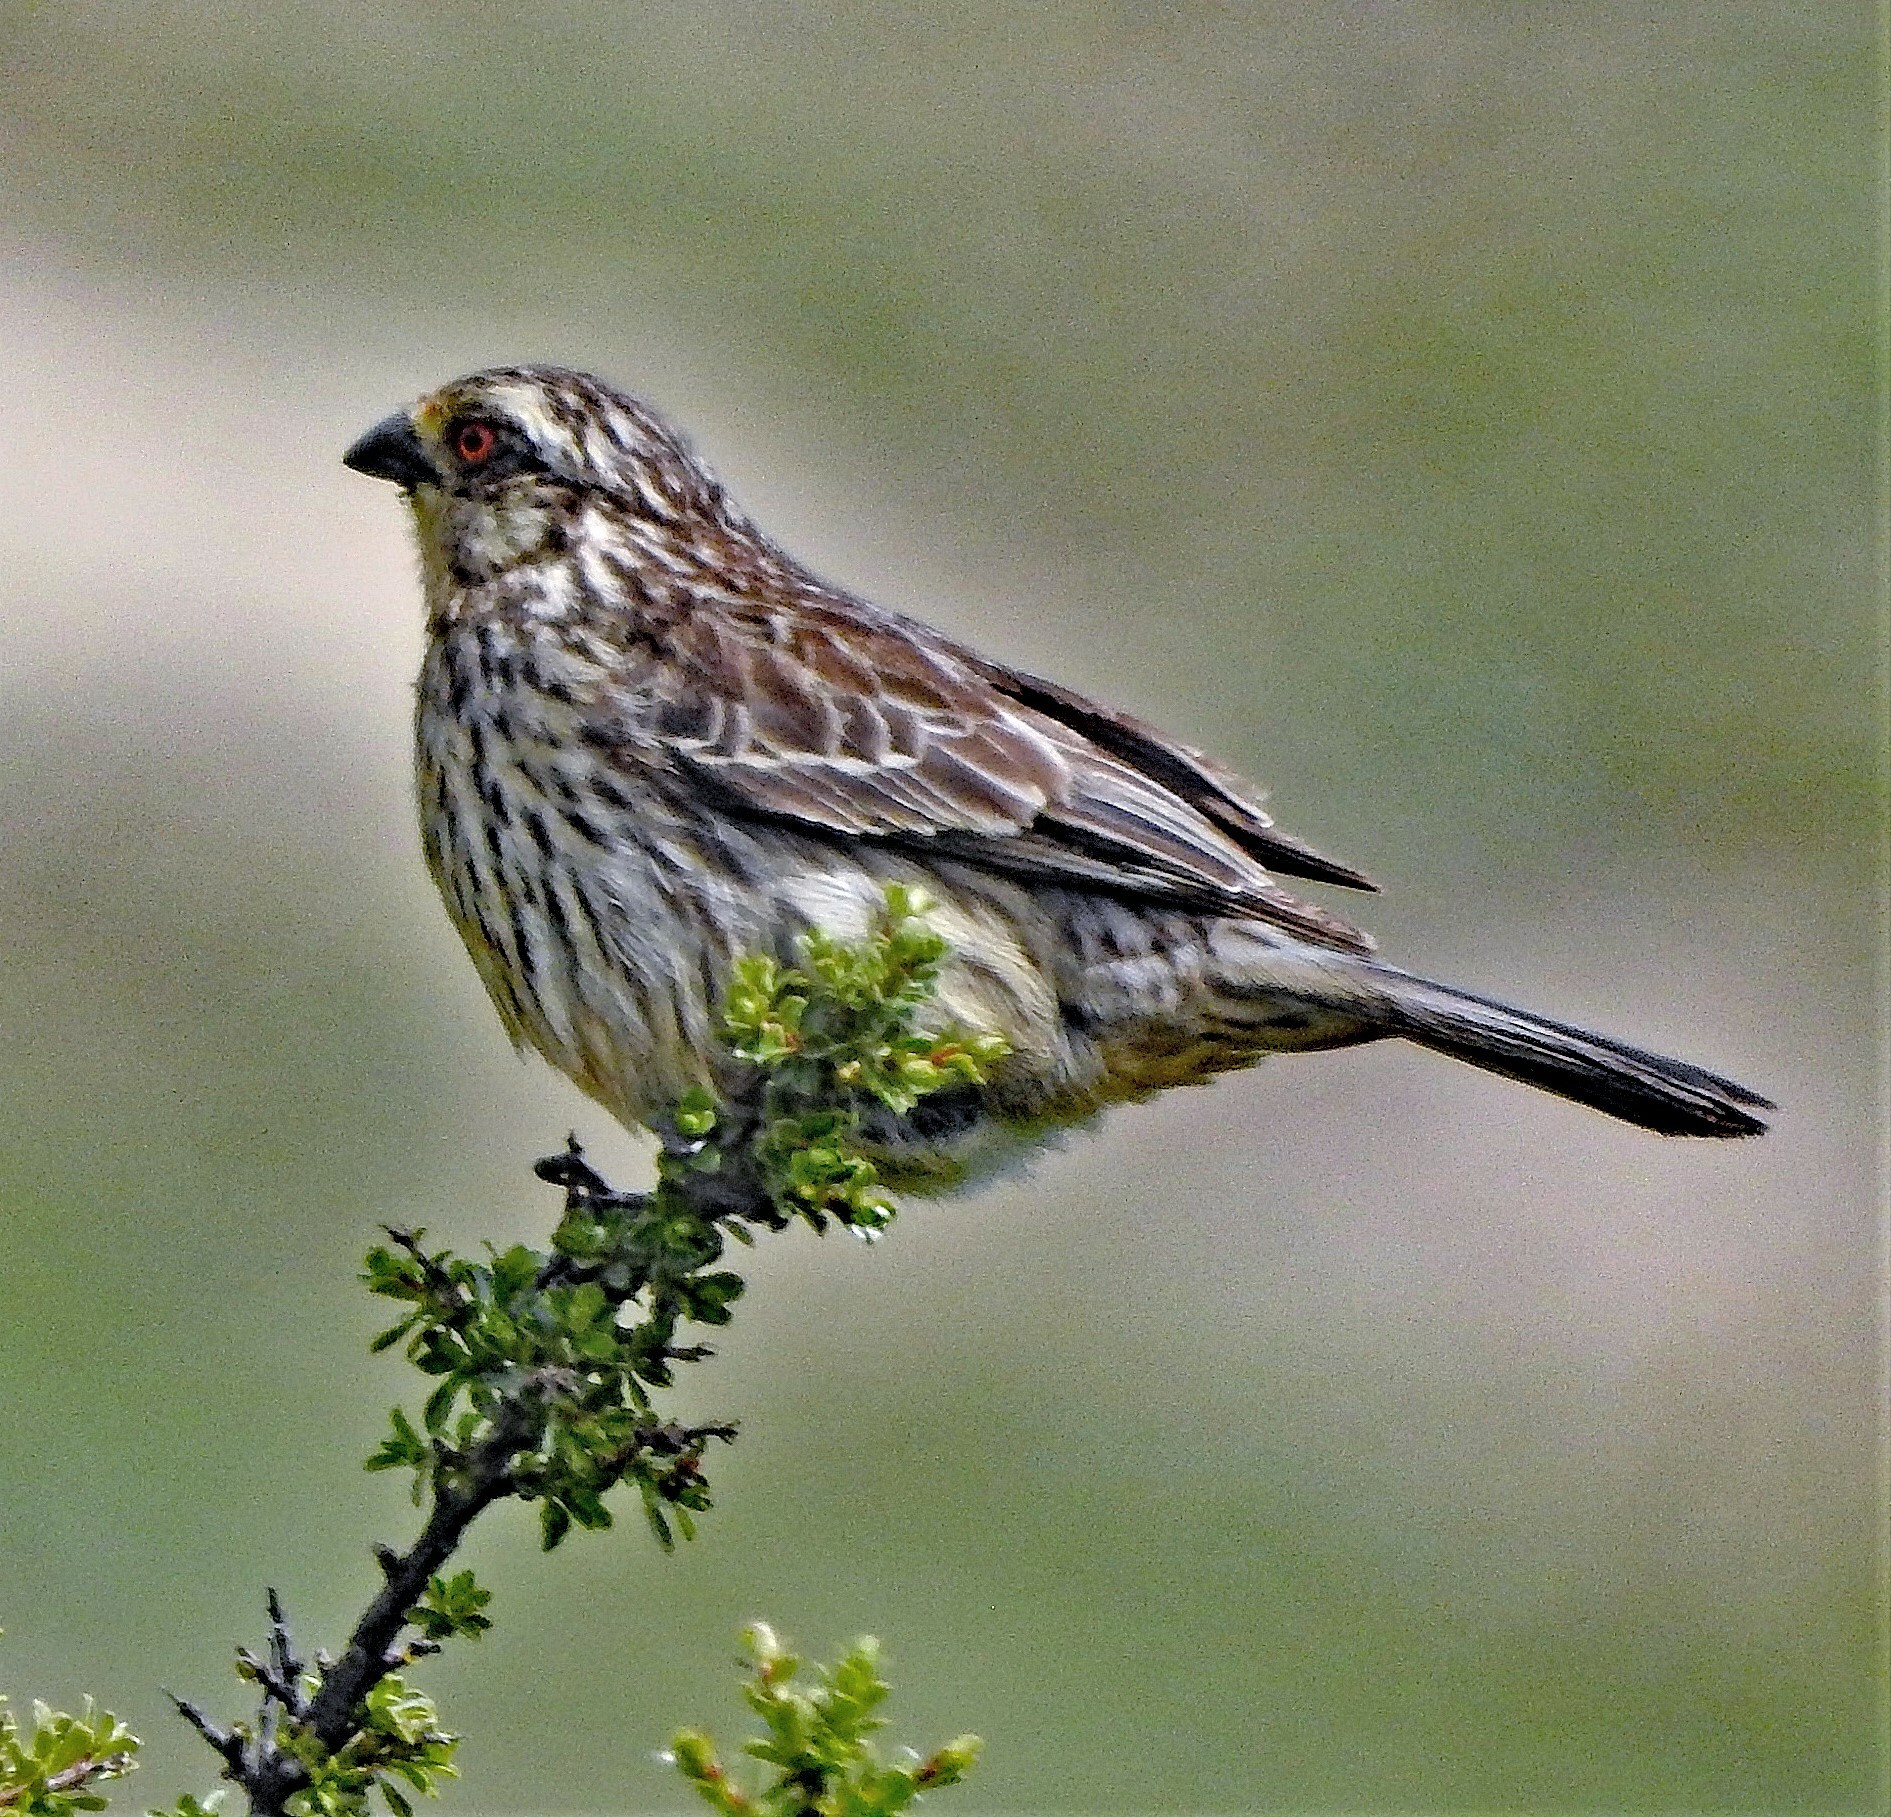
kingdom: Animalia
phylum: Chordata
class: Aves
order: Passeriformes
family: Cotingidae
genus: Phytotoma
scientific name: Phytotoma rara
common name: Rufous-tailed plantcutter
